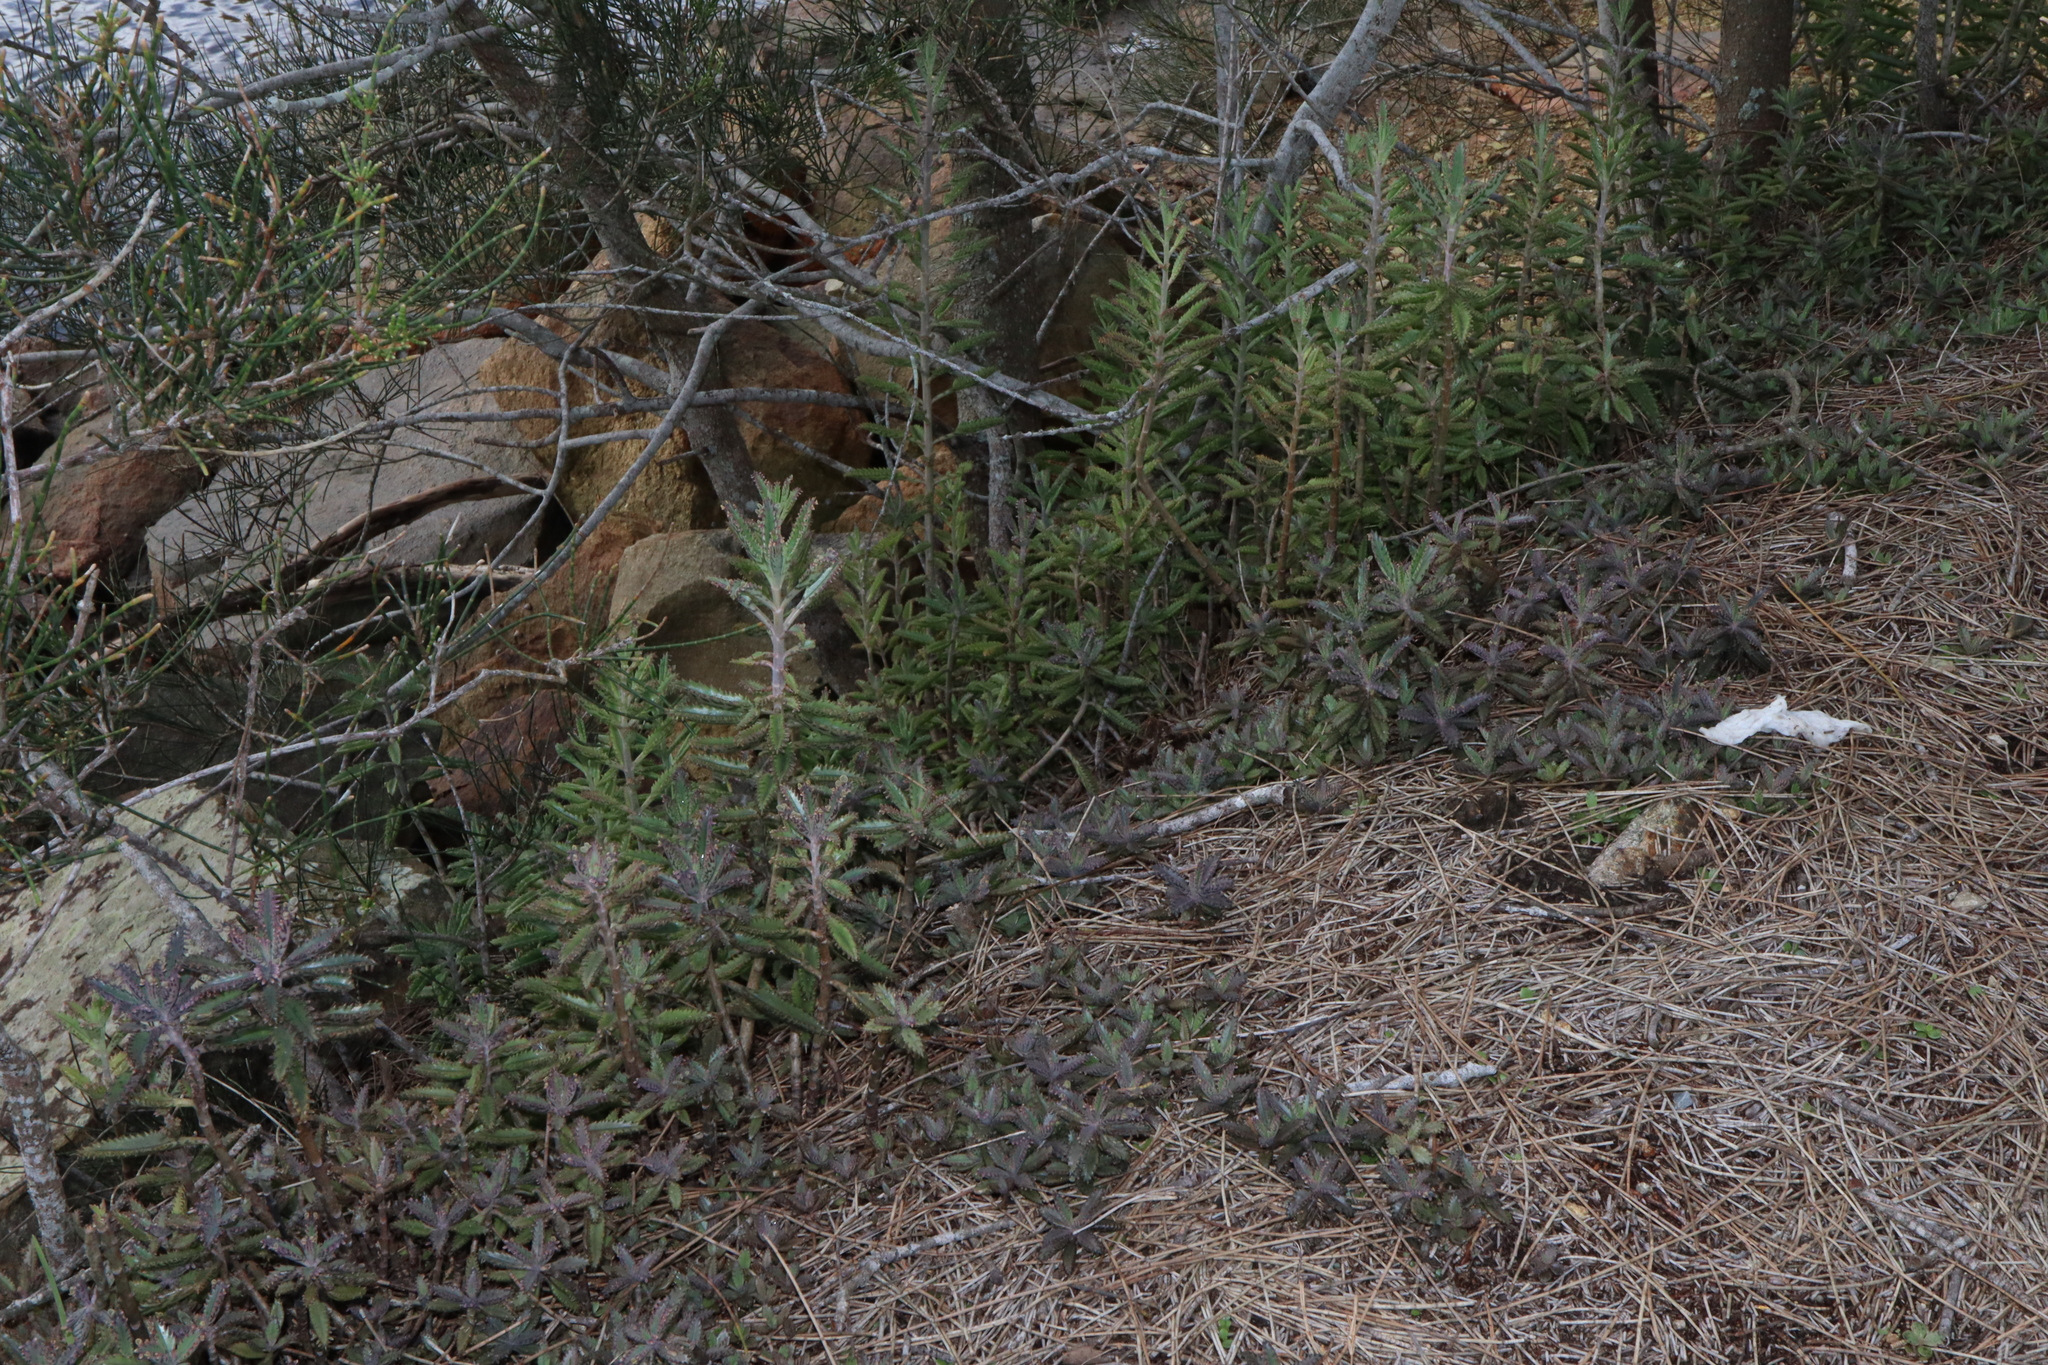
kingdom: Plantae
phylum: Tracheophyta
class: Magnoliopsida
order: Saxifragales
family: Crassulaceae
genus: Kalanchoe
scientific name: Kalanchoe houghtonii
